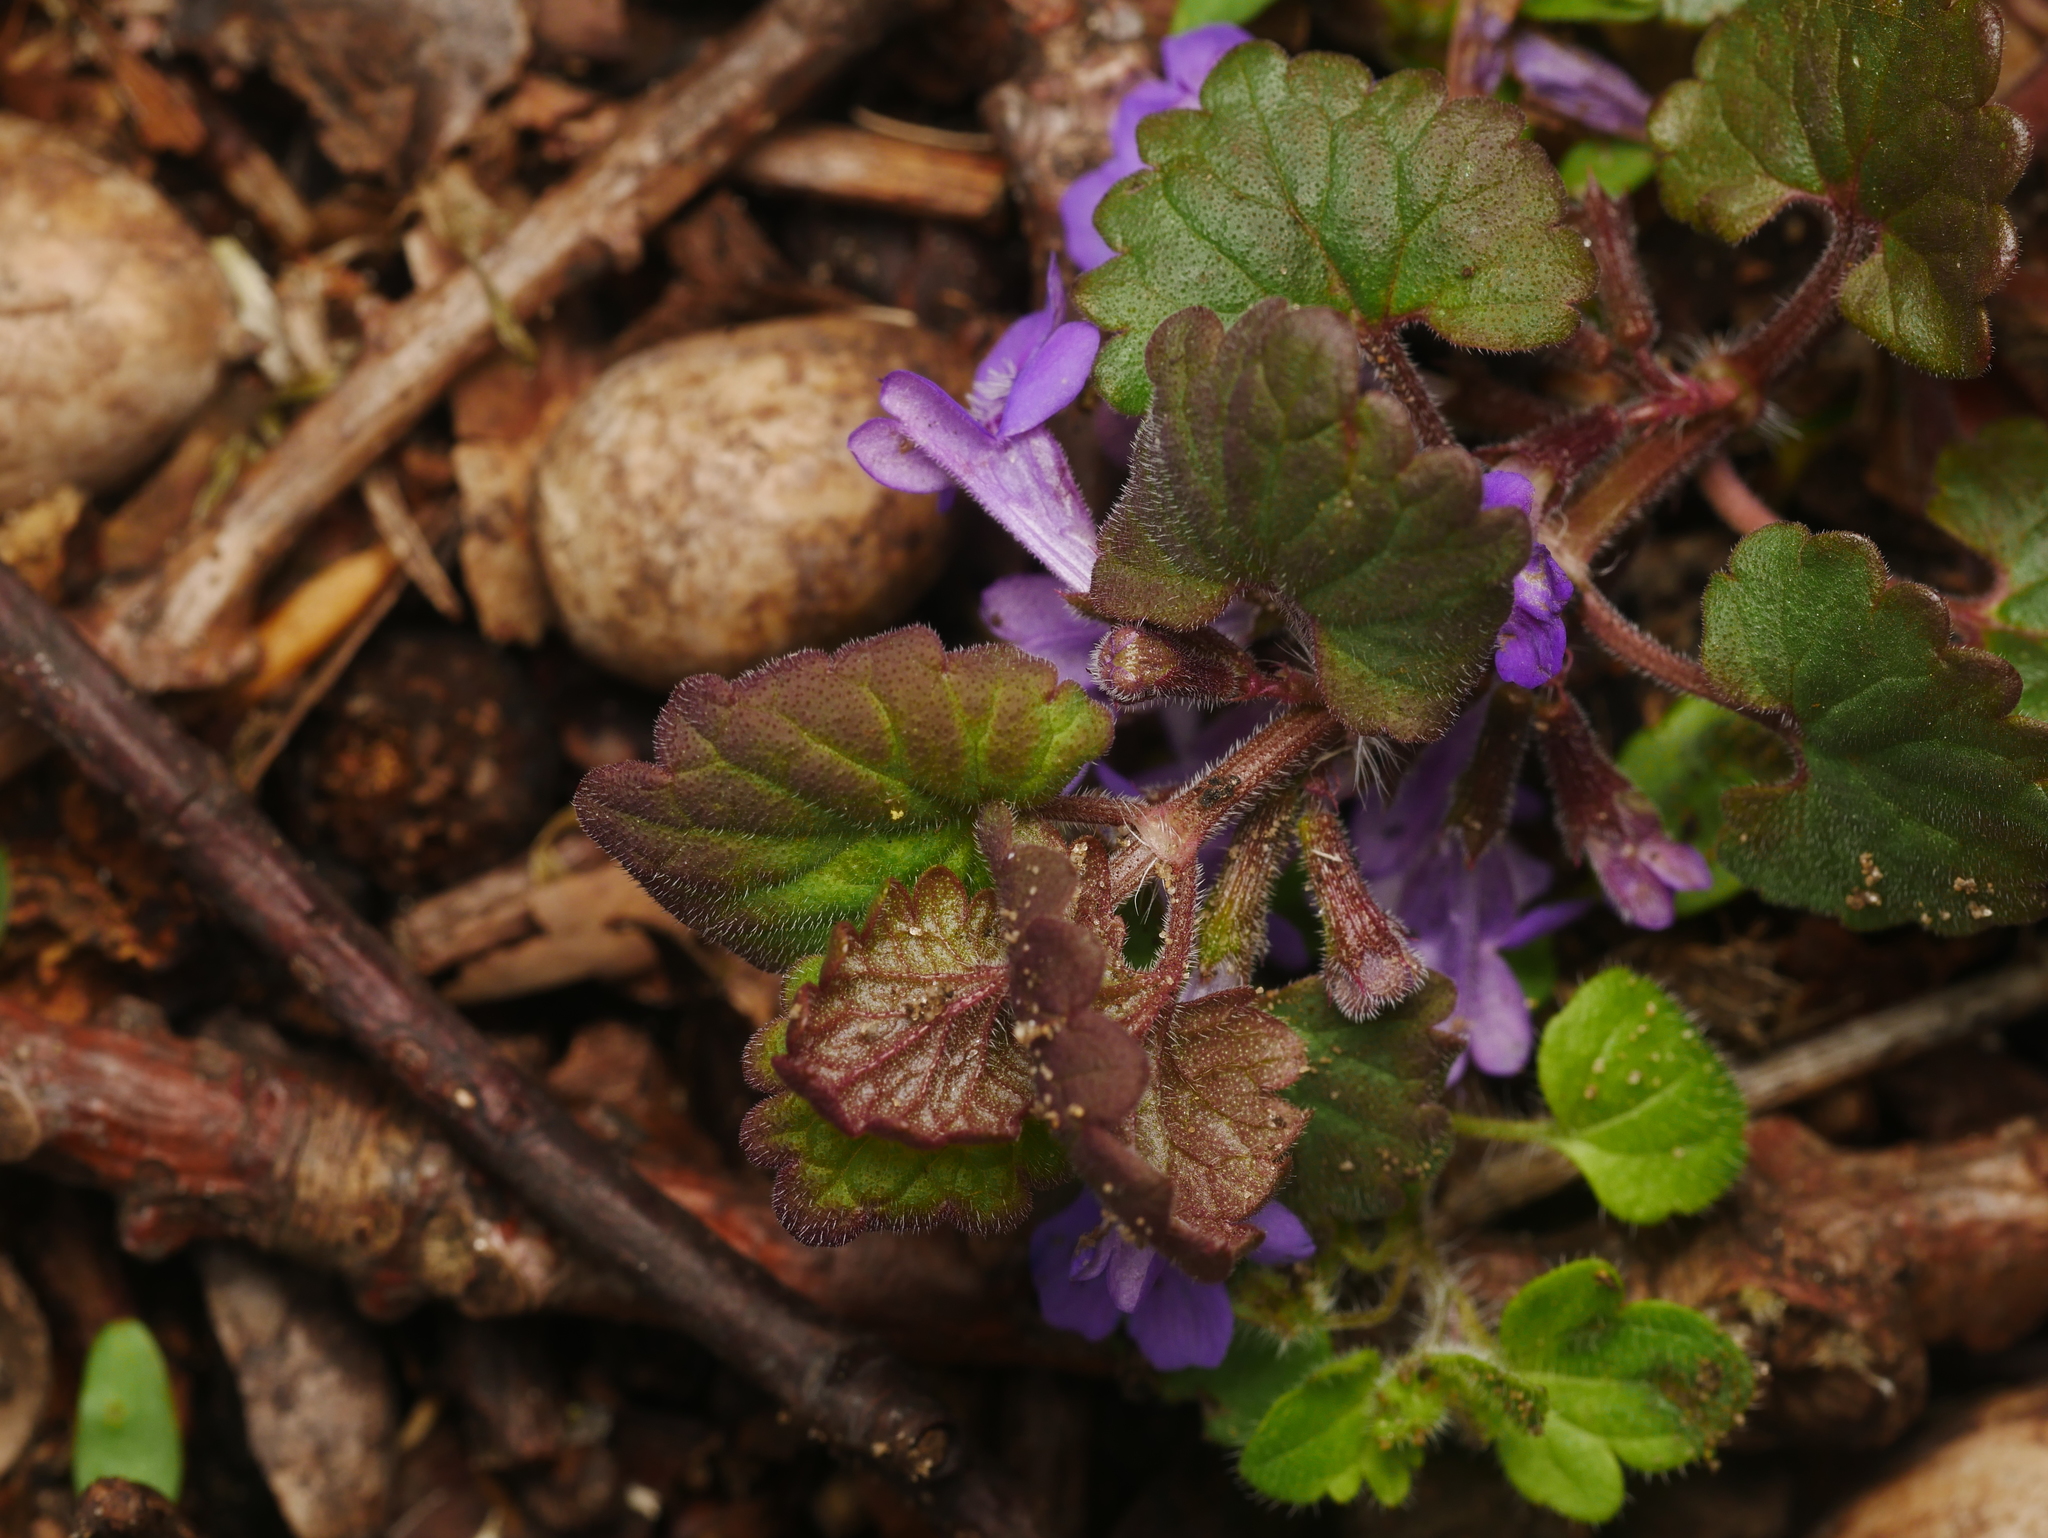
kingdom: Plantae
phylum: Tracheophyta
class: Magnoliopsida
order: Lamiales
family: Lamiaceae
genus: Glechoma
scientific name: Glechoma hederacea
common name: Ground ivy
